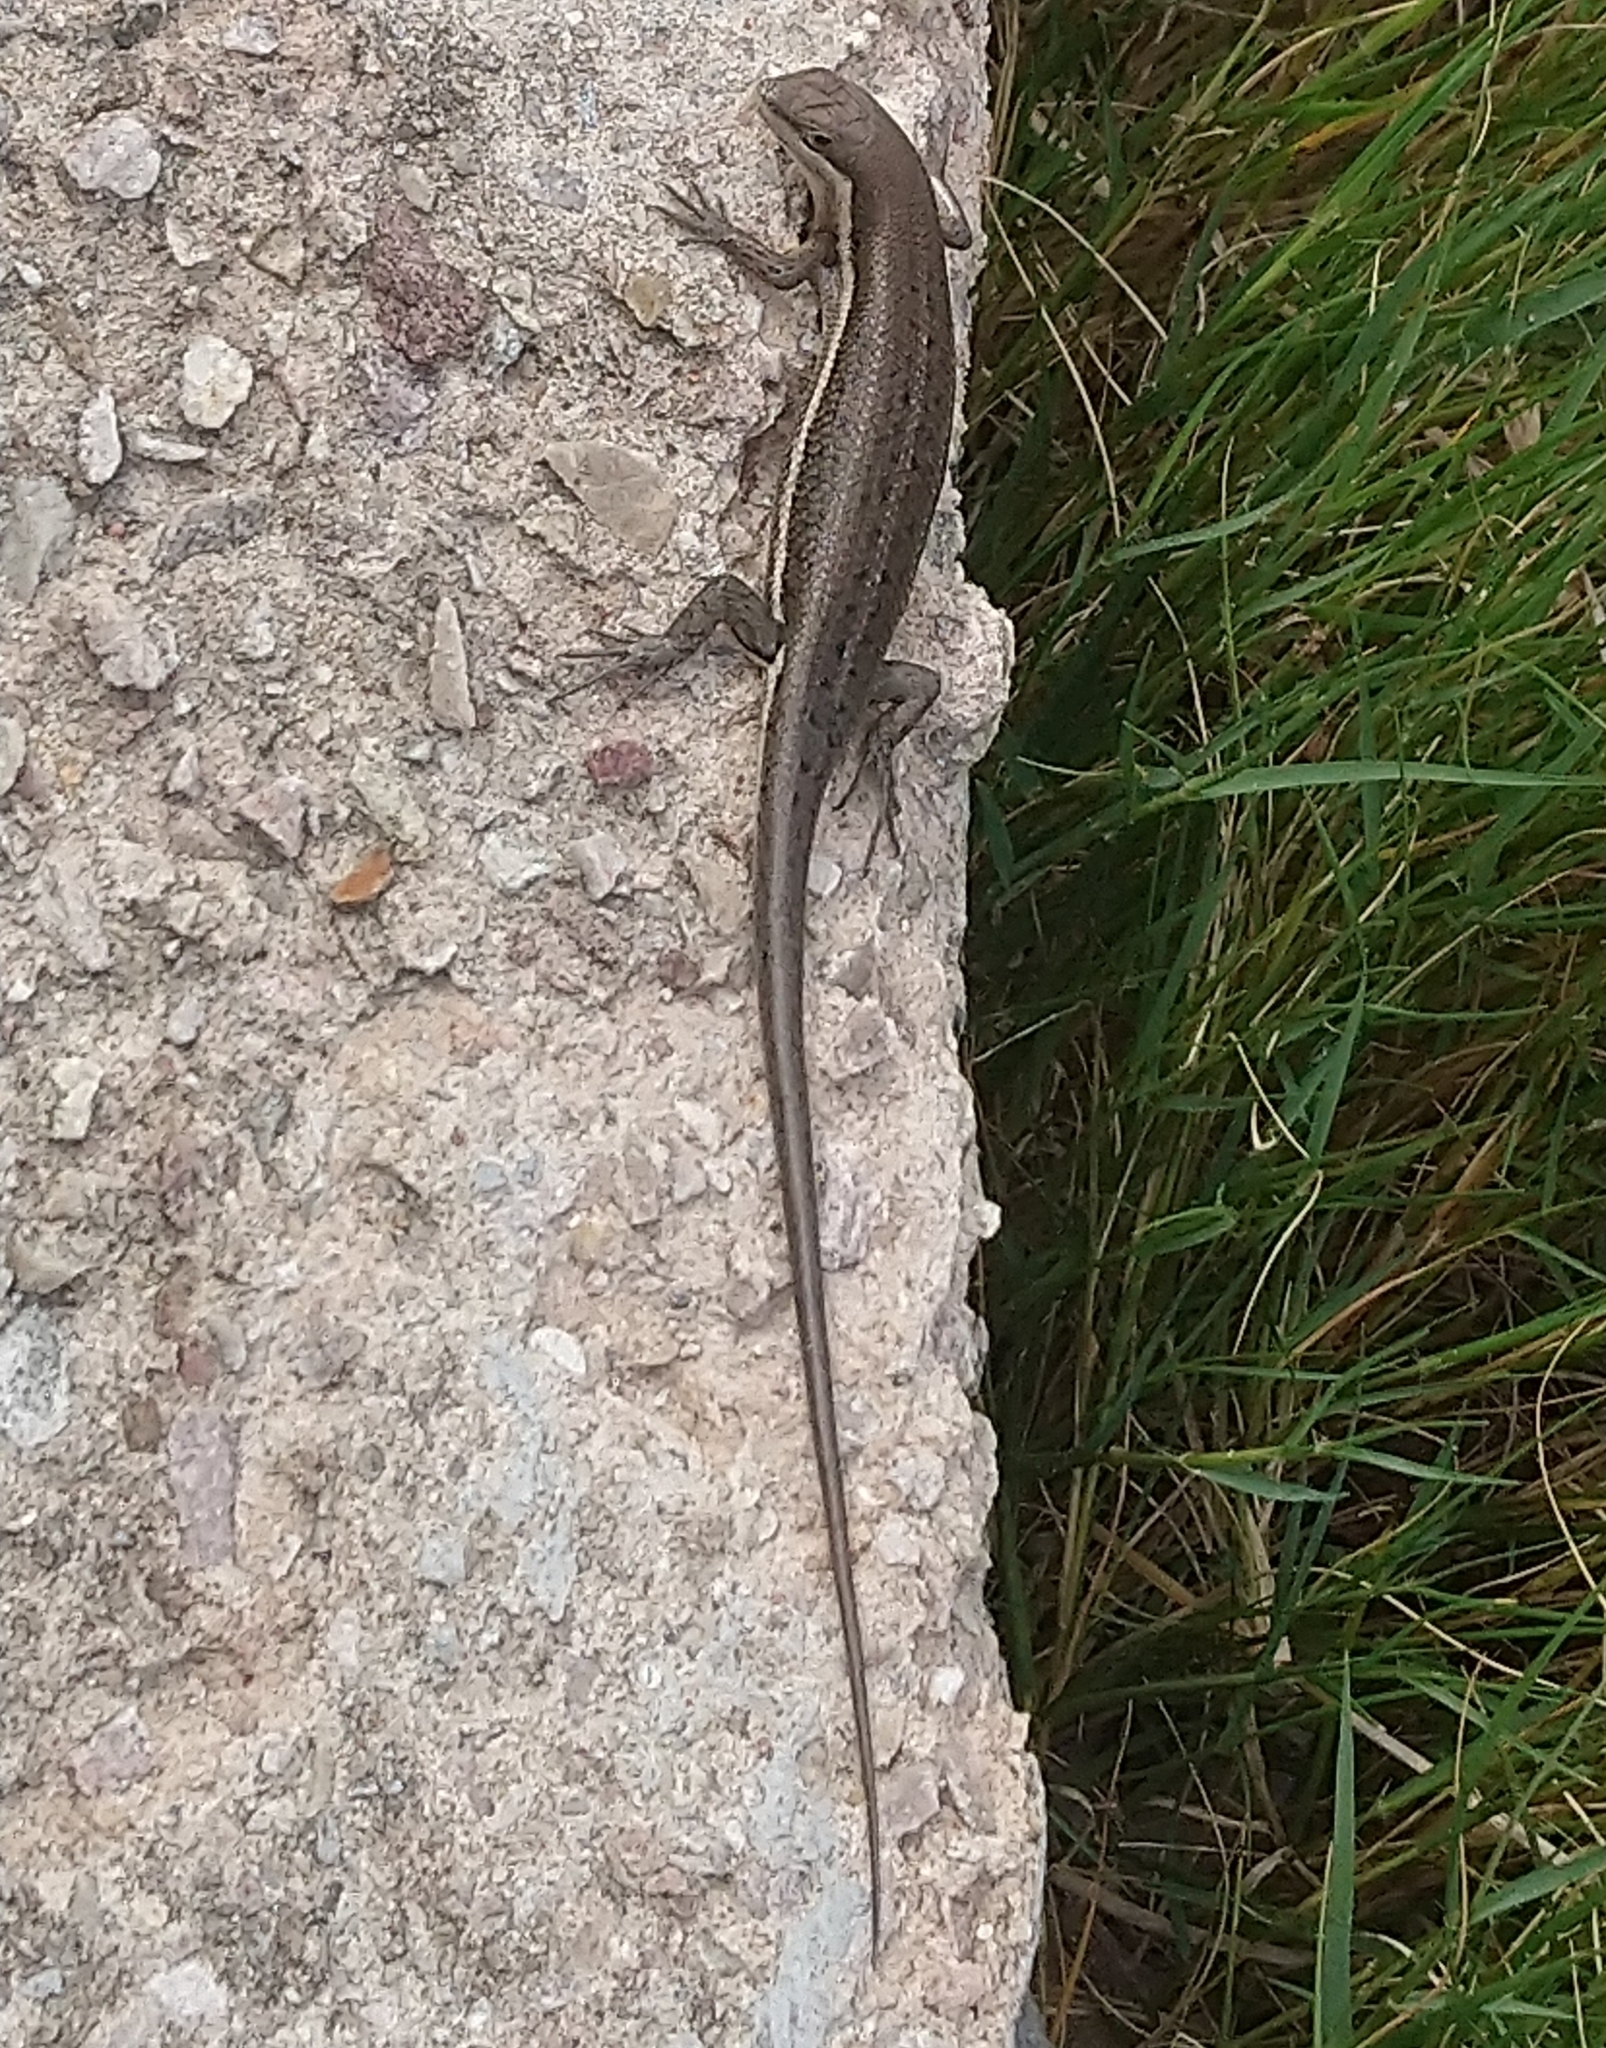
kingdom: Animalia
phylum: Chordata
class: Squamata
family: Scincidae
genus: Trachylepis
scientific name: Trachylepis varia
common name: Eastern variable skink
